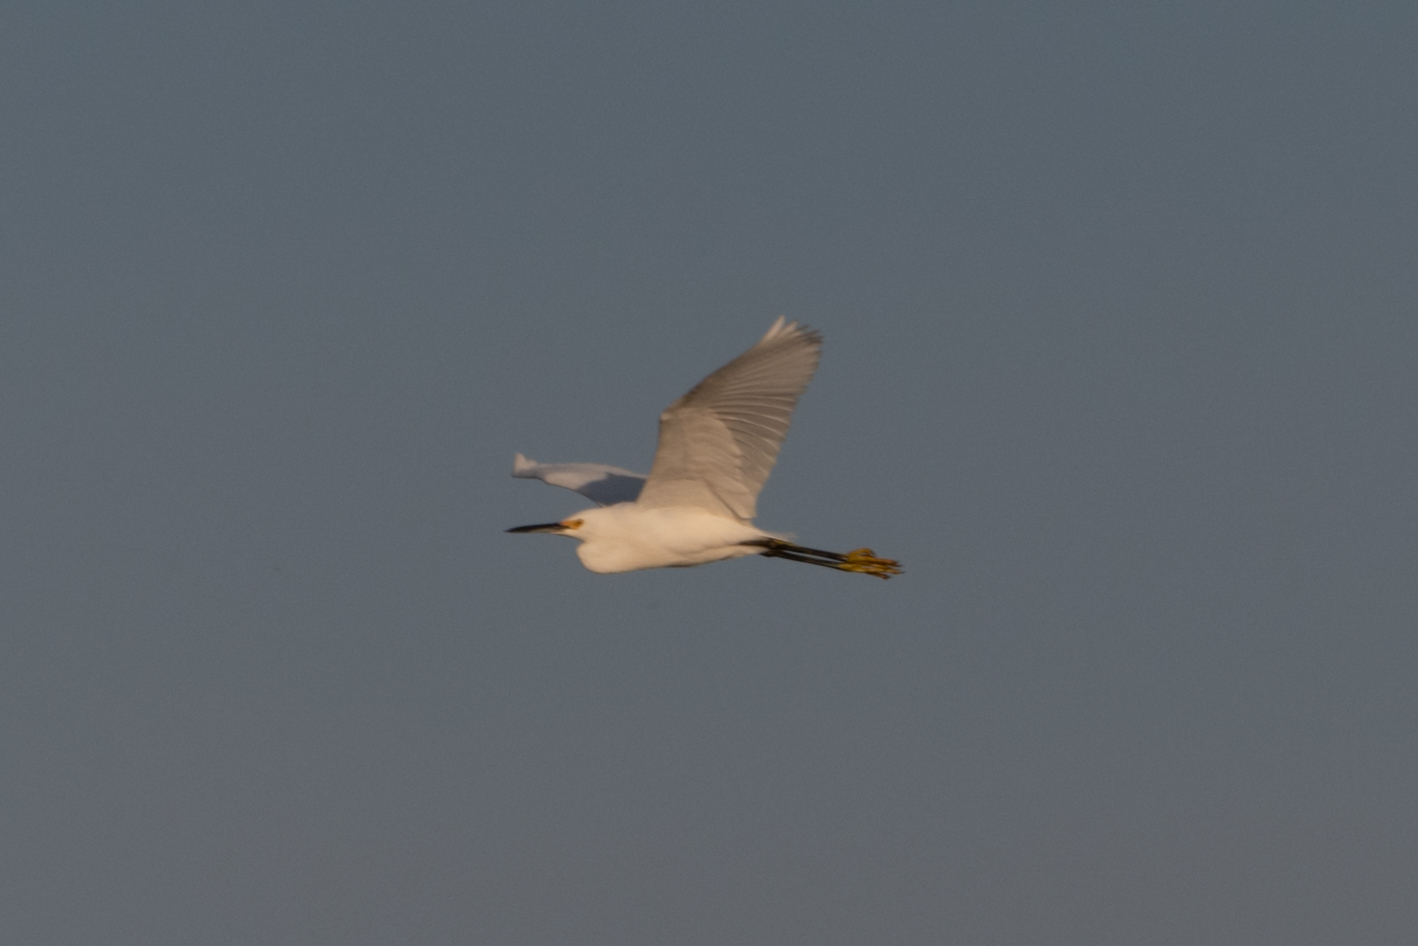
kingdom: Animalia
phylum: Chordata
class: Aves
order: Pelecaniformes
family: Ardeidae
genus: Egretta
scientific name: Egretta thula
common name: Snowy egret
